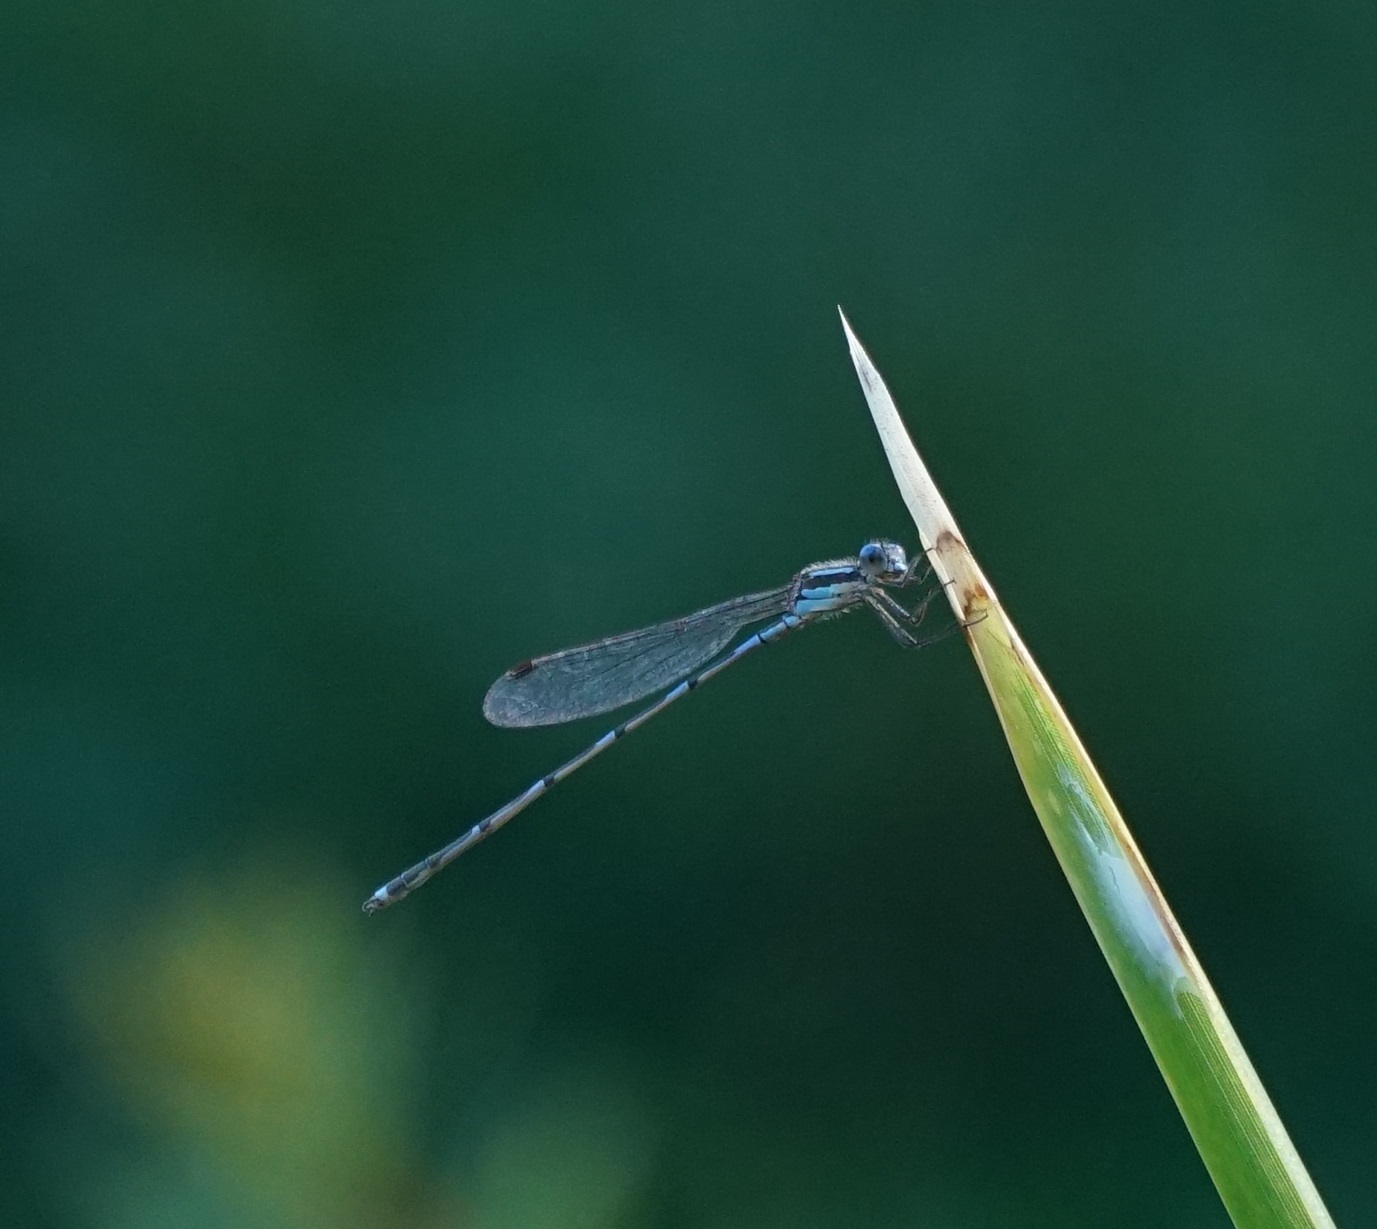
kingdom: Animalia
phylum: Arthropoda
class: Insecta
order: Odonata
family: Lestidae
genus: Austrolestes
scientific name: Austrolestes leda
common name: Wandering ringtail
